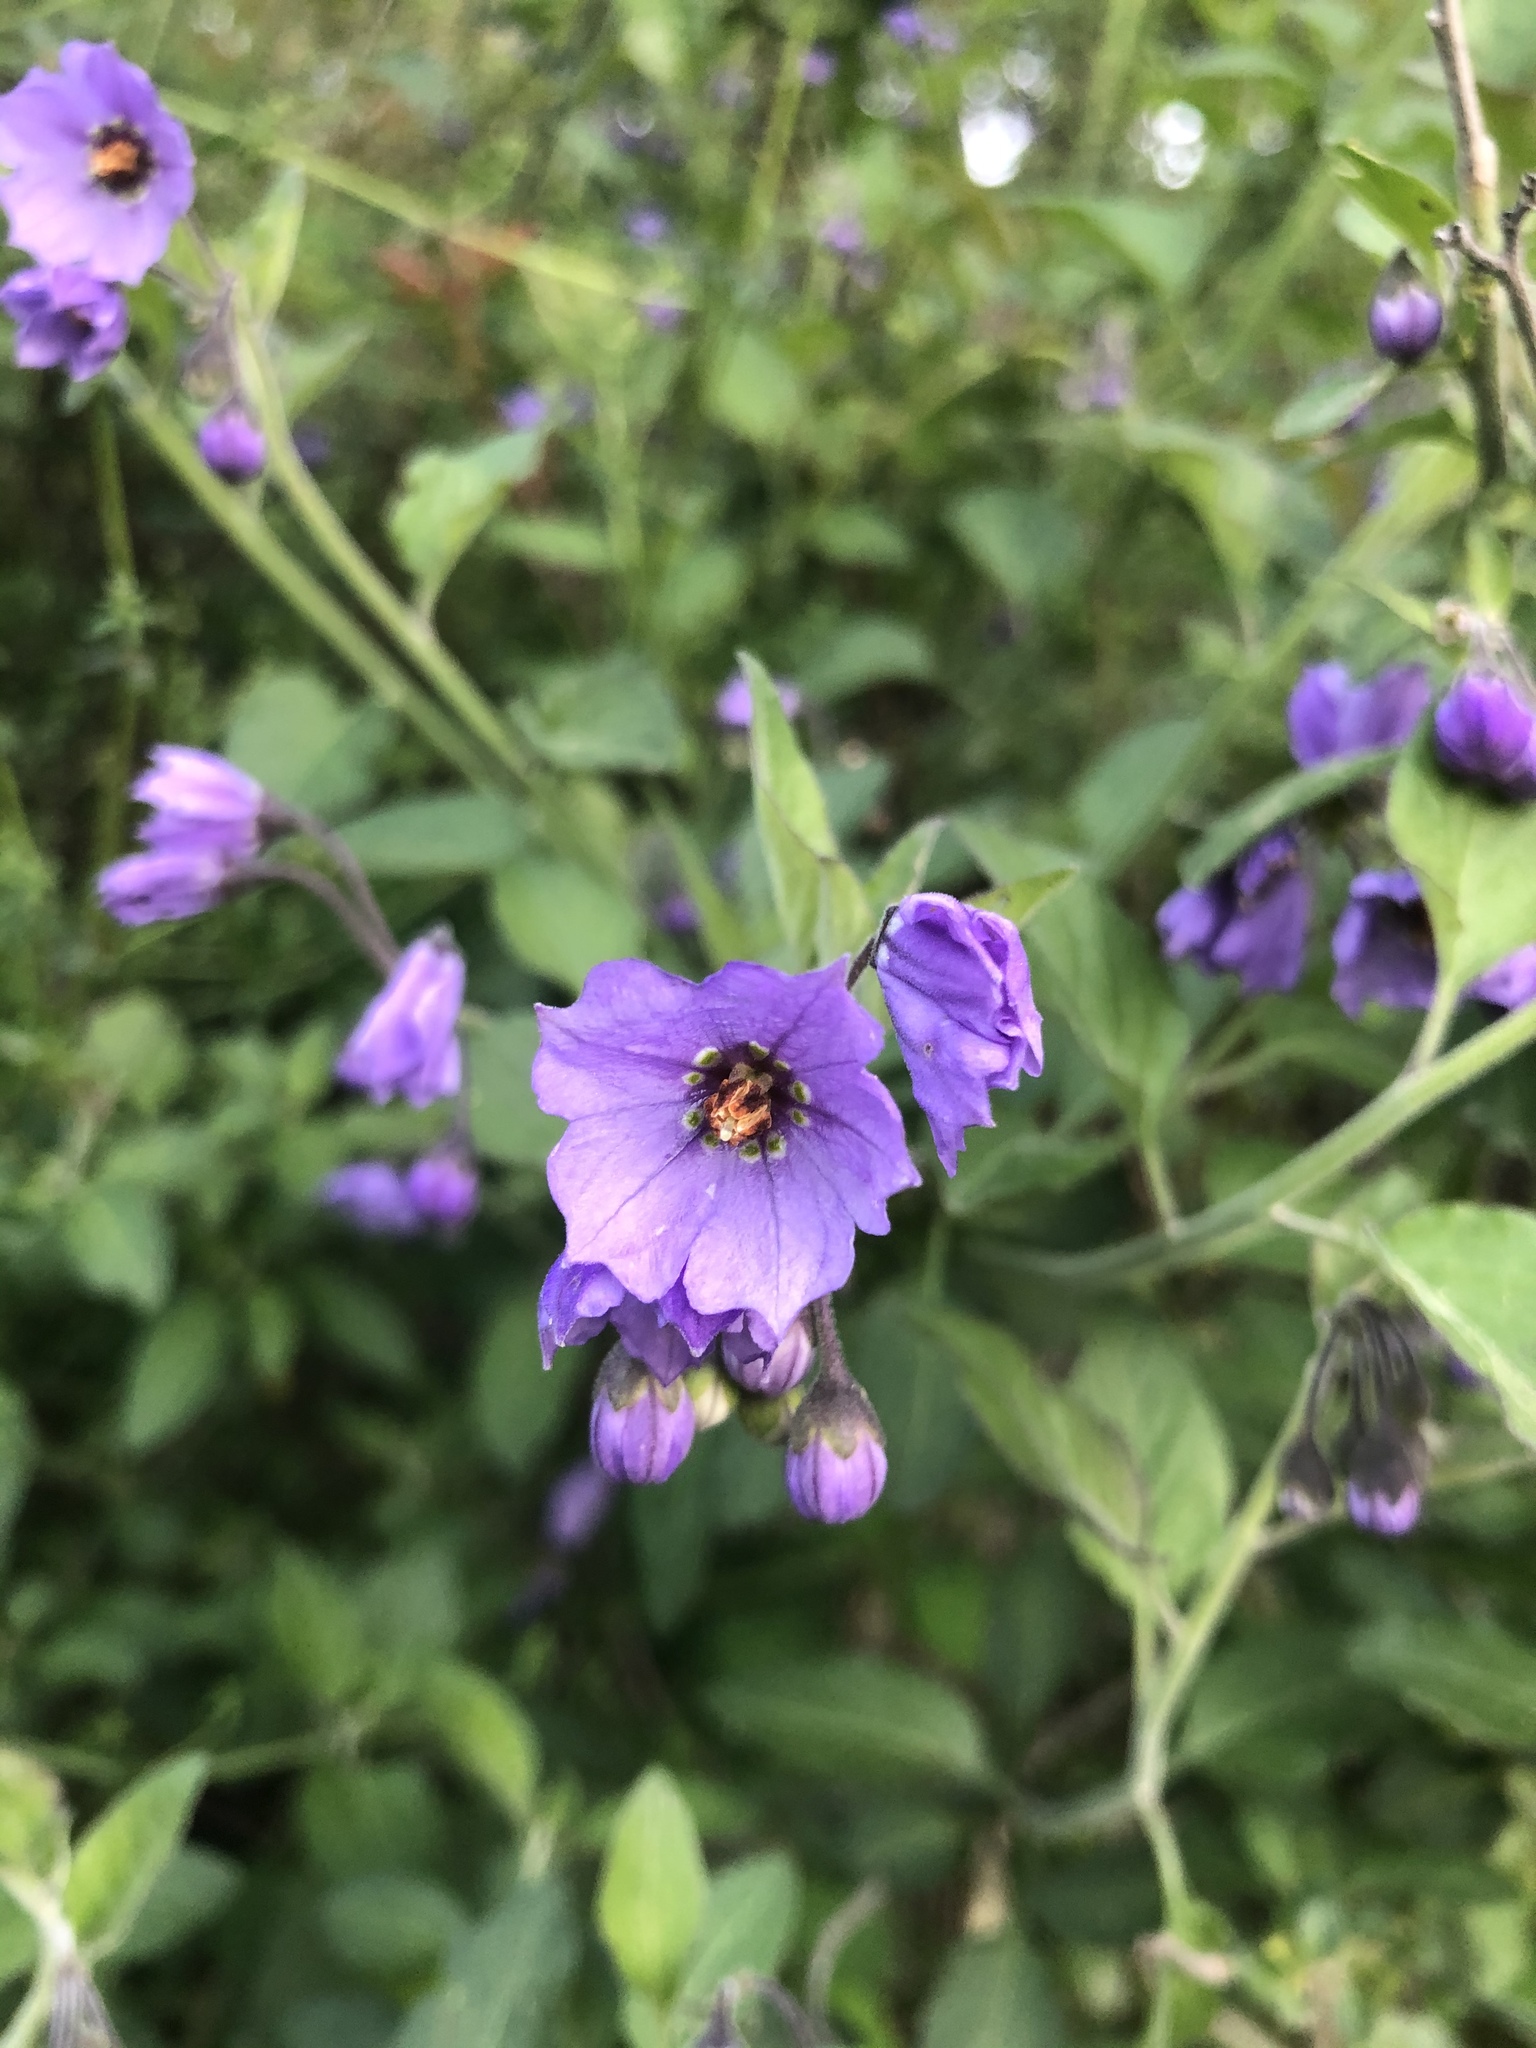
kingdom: Plantae
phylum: Tracheophyta
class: Magnoliopsida
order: Solanales
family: Solanaceae
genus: Solanum
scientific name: Solanum umbelliferum
